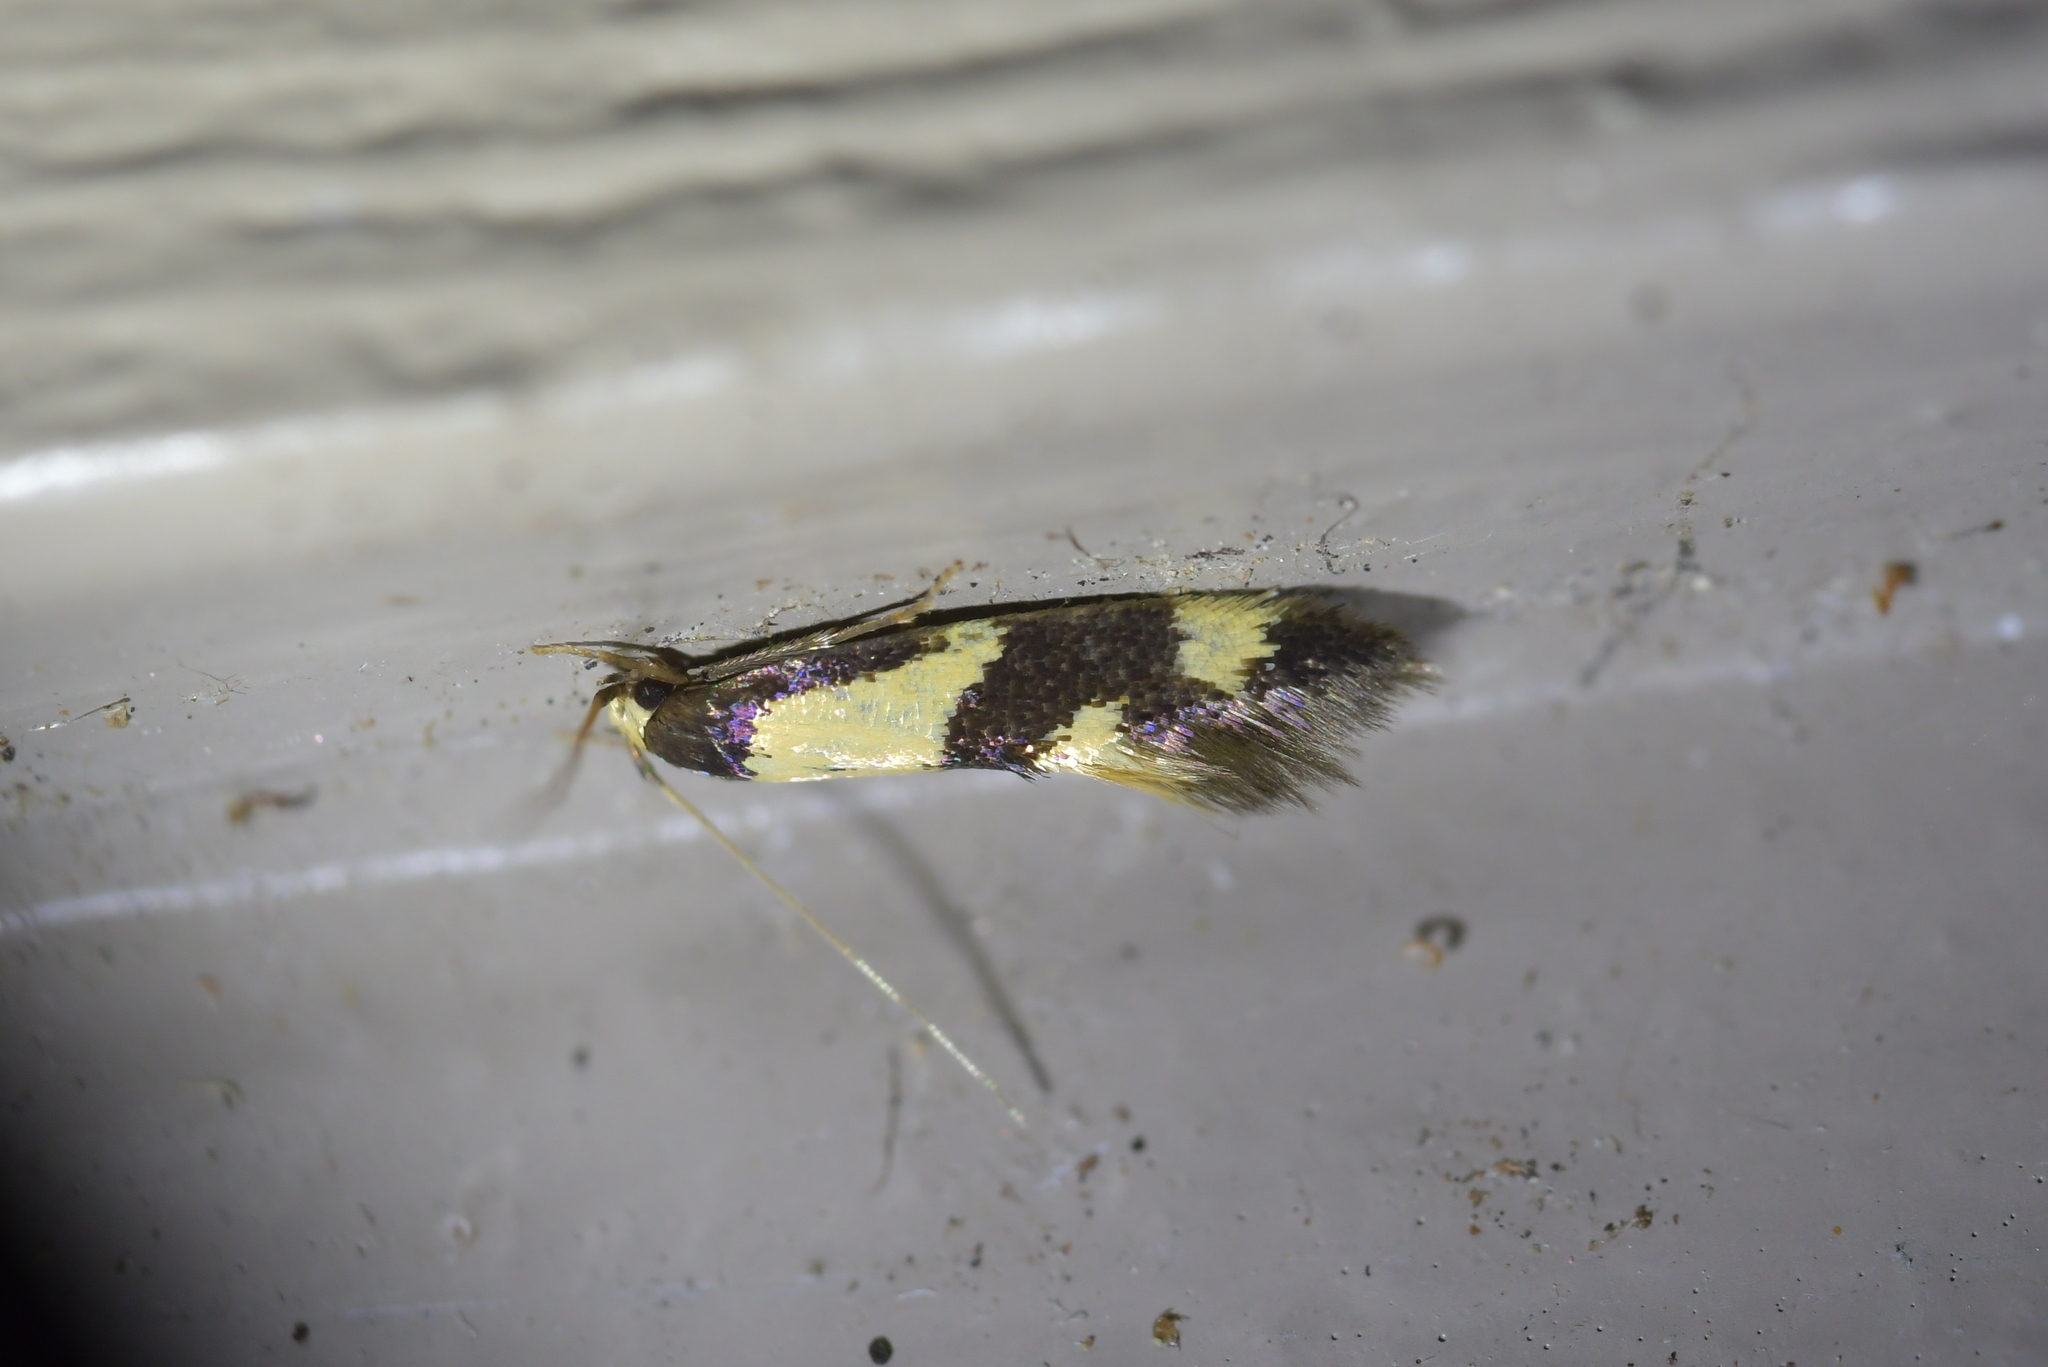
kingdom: Animalia
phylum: Arthropoda
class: Insecta
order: Lepidoptera
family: Tineidae
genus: Opogona
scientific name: Opogona comptella
